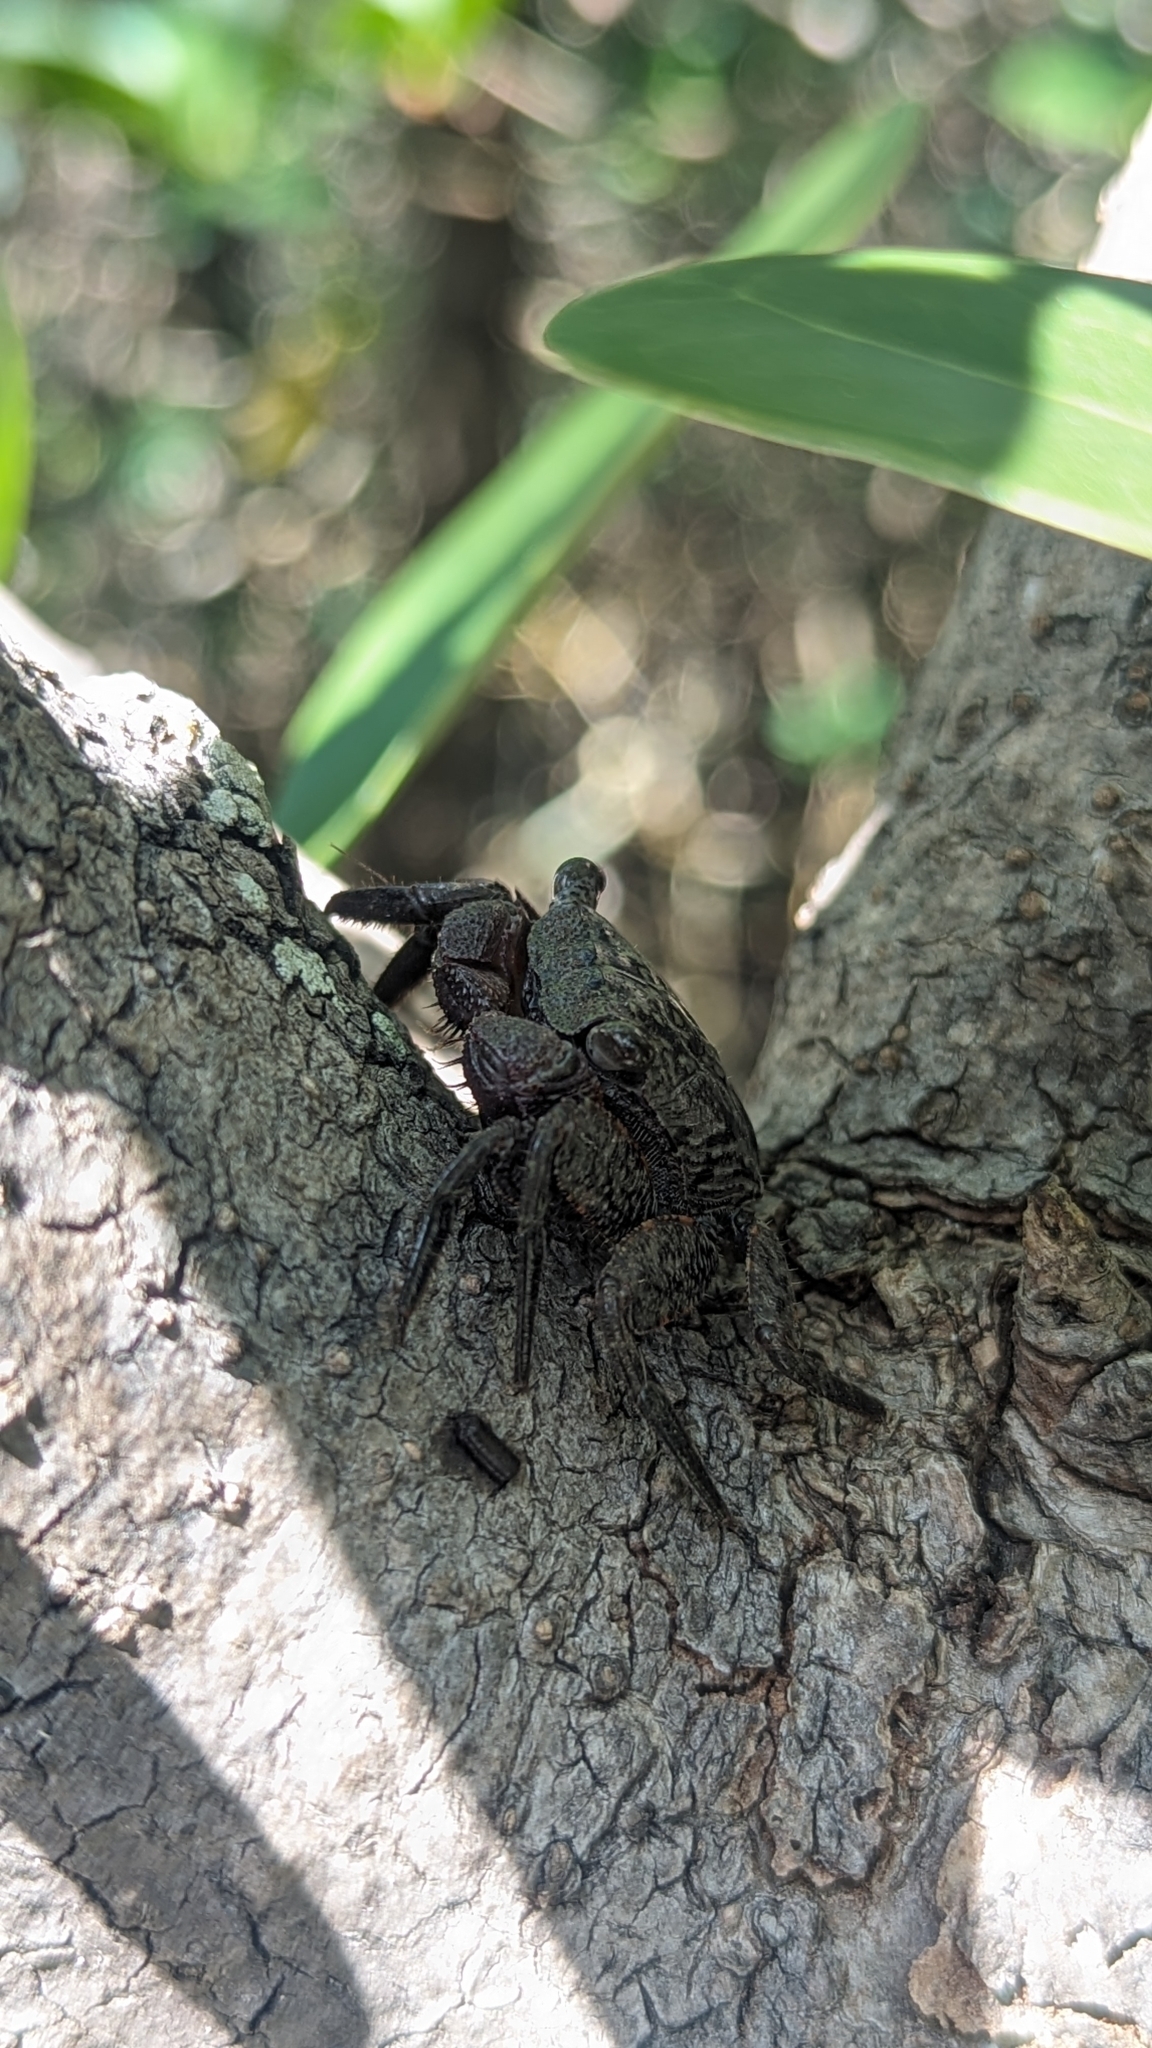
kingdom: Animalia
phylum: Arthropoda
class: Malacostraca
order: Decapoda
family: Sesarmidae
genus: Aratus
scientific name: Aratus pisonii
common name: Mangrove crab
